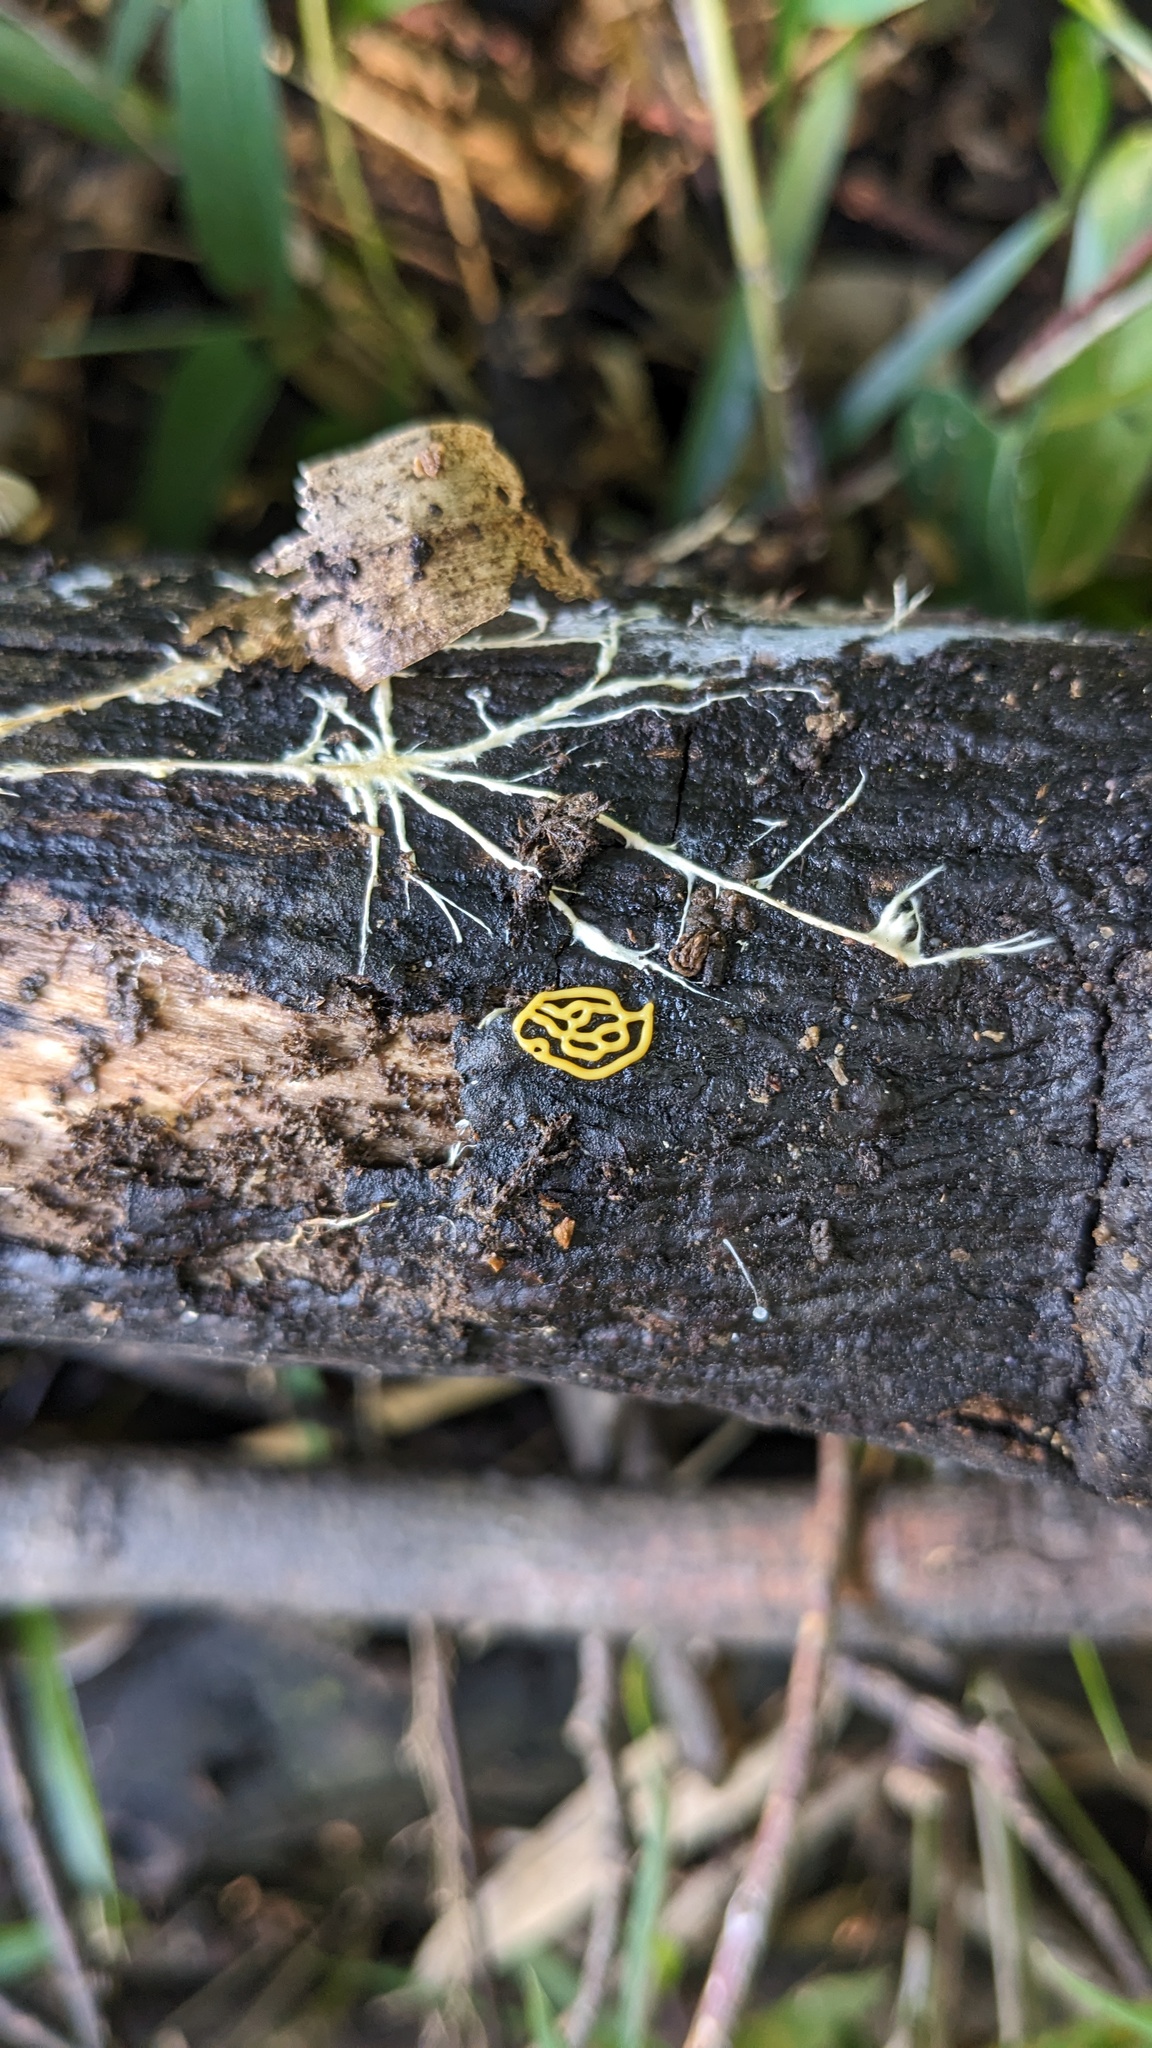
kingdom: Protozoa
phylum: Mycetozoa
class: Myxomycetes
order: Trichiales
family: Arcyriaceae
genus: Hemitrichia
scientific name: Hemitrichia serpula
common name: Pretzel slime mold
